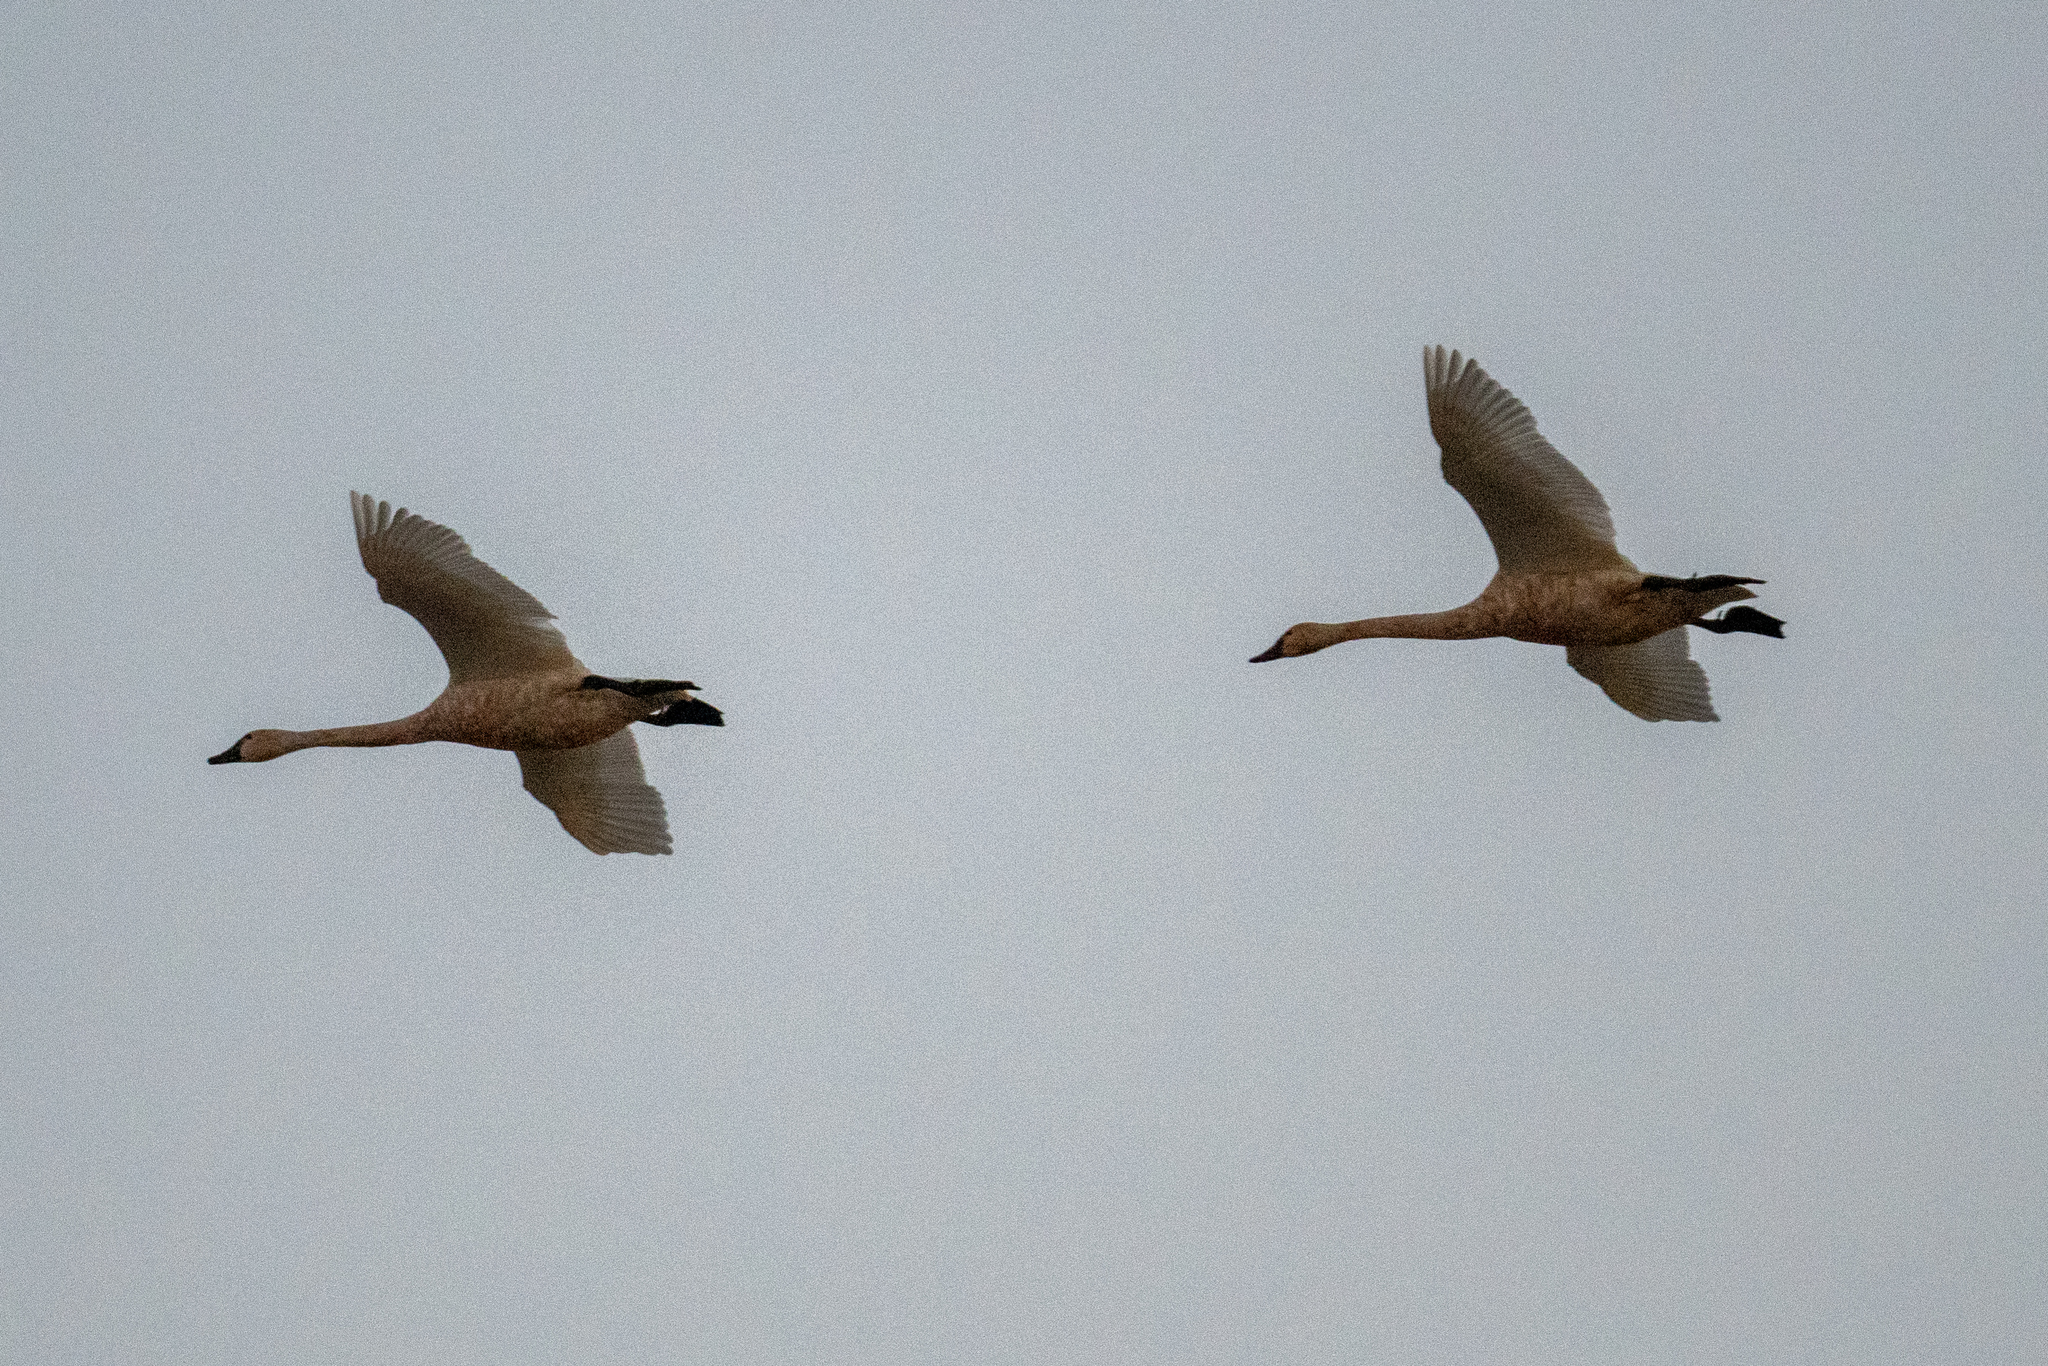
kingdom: Animalia
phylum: Chordata
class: Aves
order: Anseriformes
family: Anatidae
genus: Cygnus
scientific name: Cygnus columbianus
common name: Tundra swan
